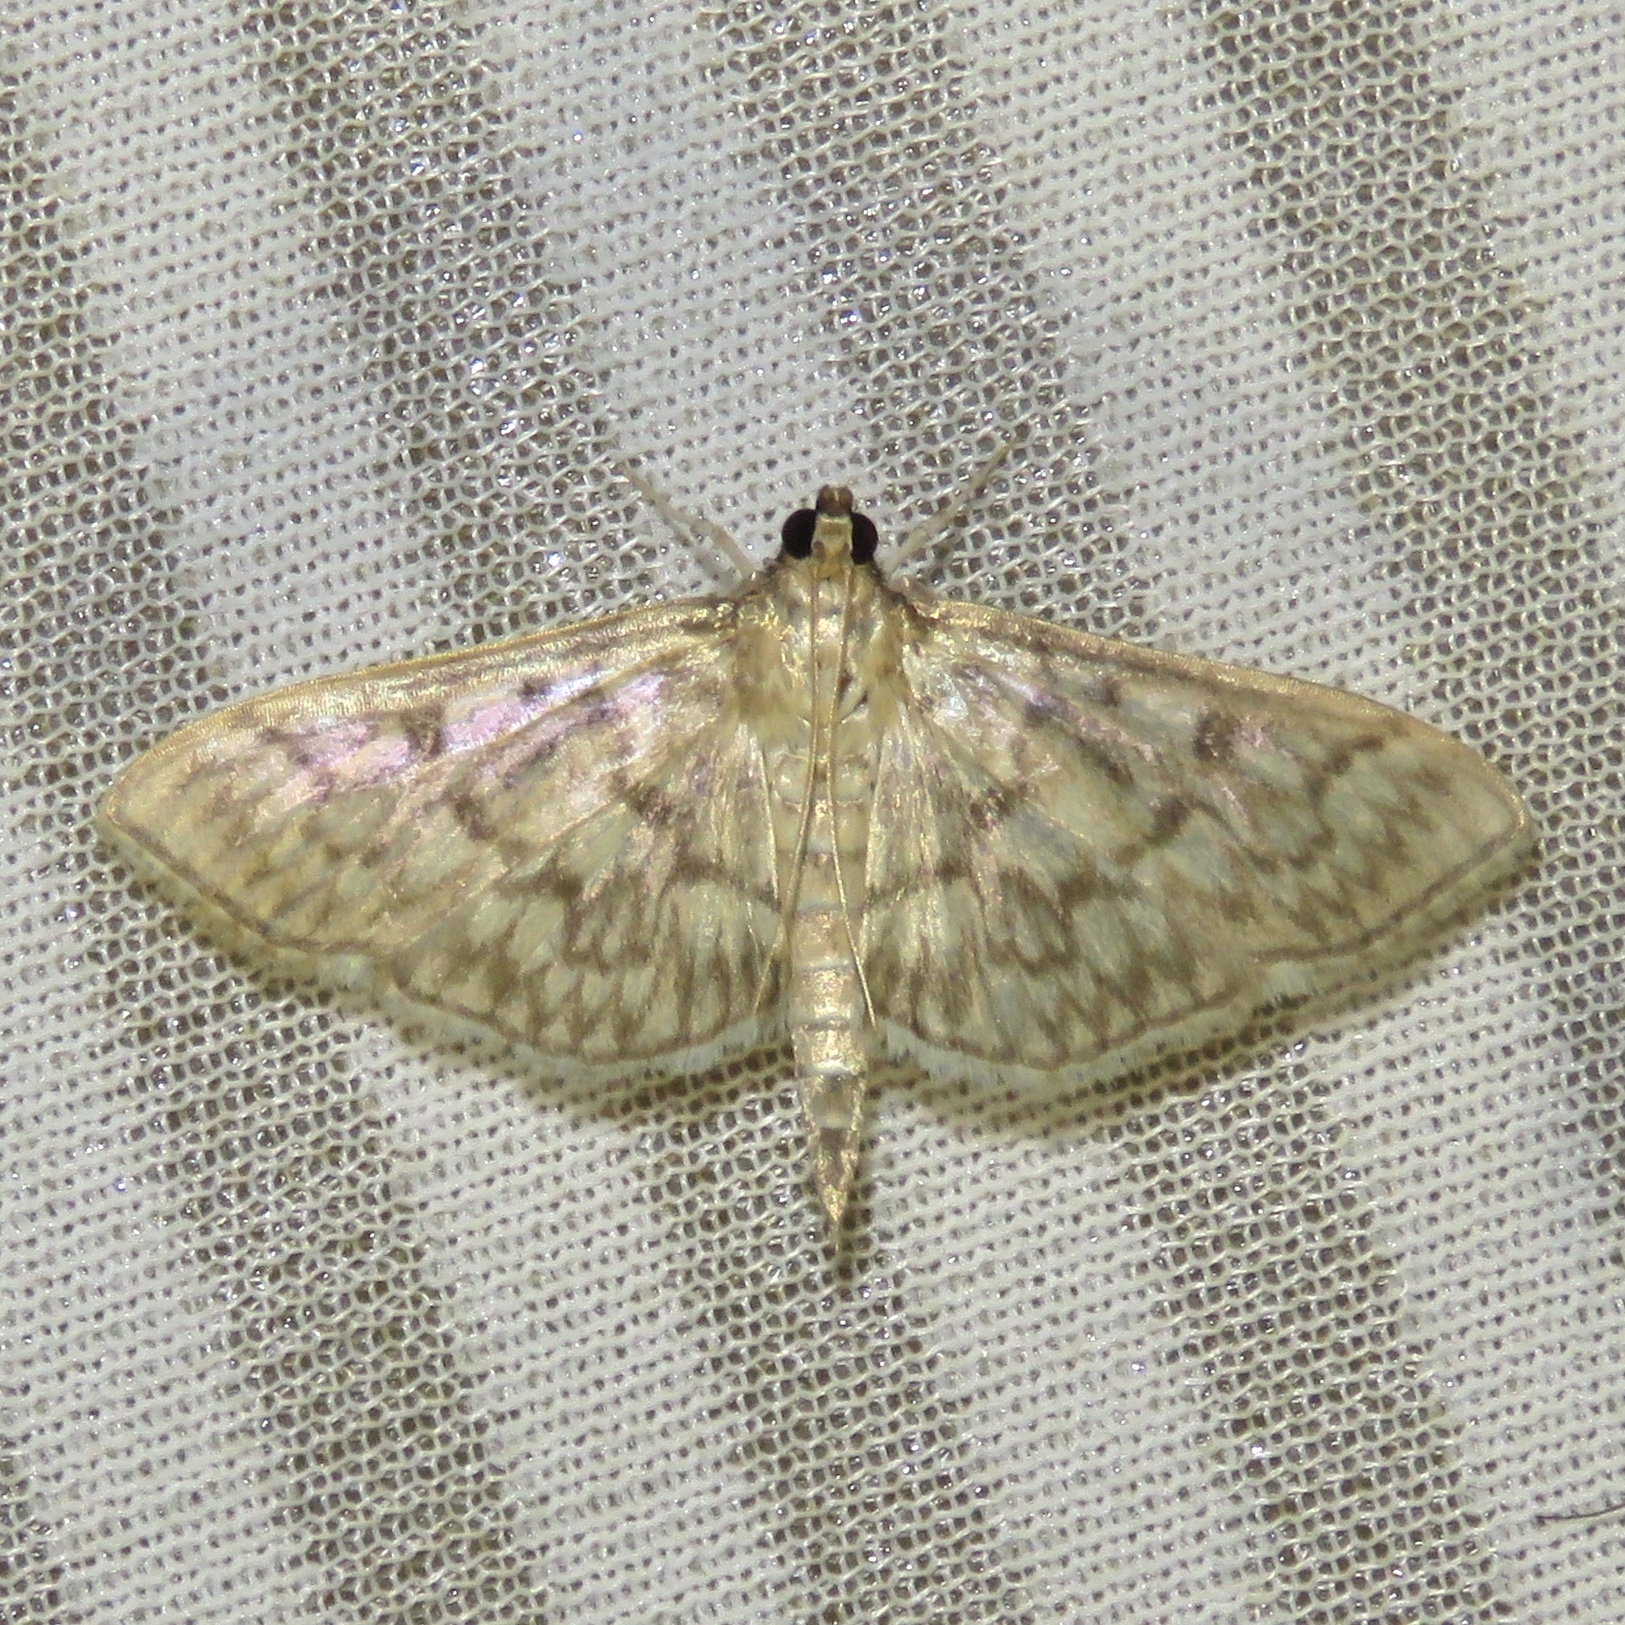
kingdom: Animalia
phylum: Arthropoda
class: Insecta
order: Lepidoptera
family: Crambidae
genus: Herpetogramma
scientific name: Herpetogramma pertextalis
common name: Bold-feathered grass moth
